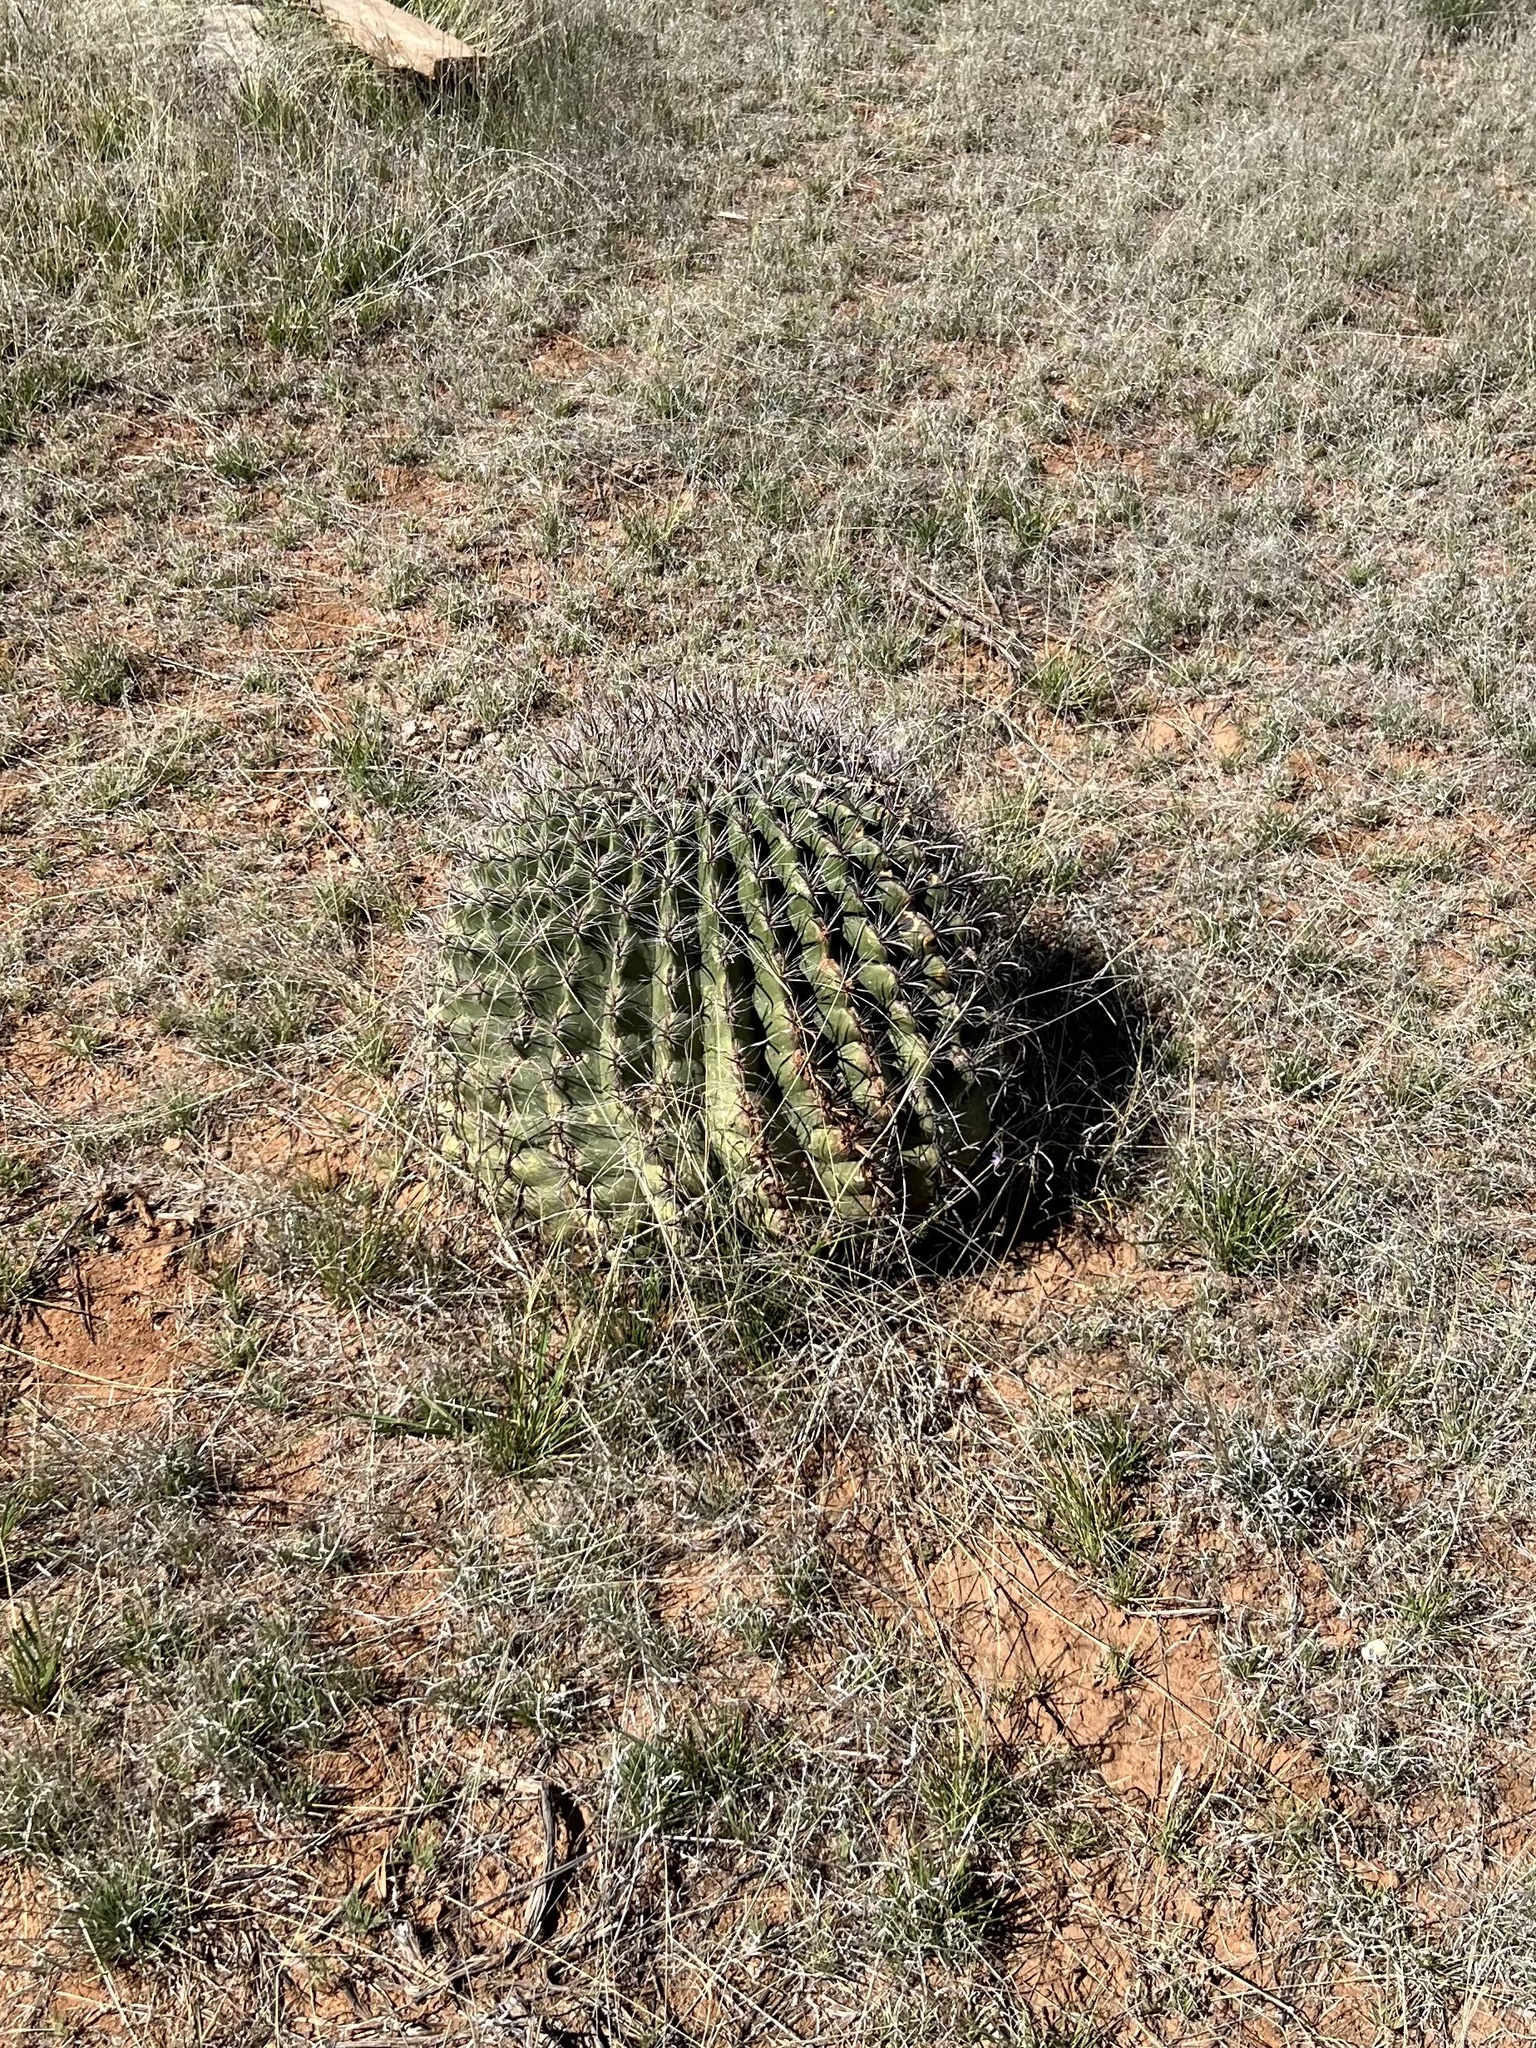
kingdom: Plantae
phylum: Tracheophyta
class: Magnoliopsida
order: Caryophyllales
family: Cactaceae
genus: Ferocactus
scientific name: Ferocactus wislizeni
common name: Candy barrel cactus
